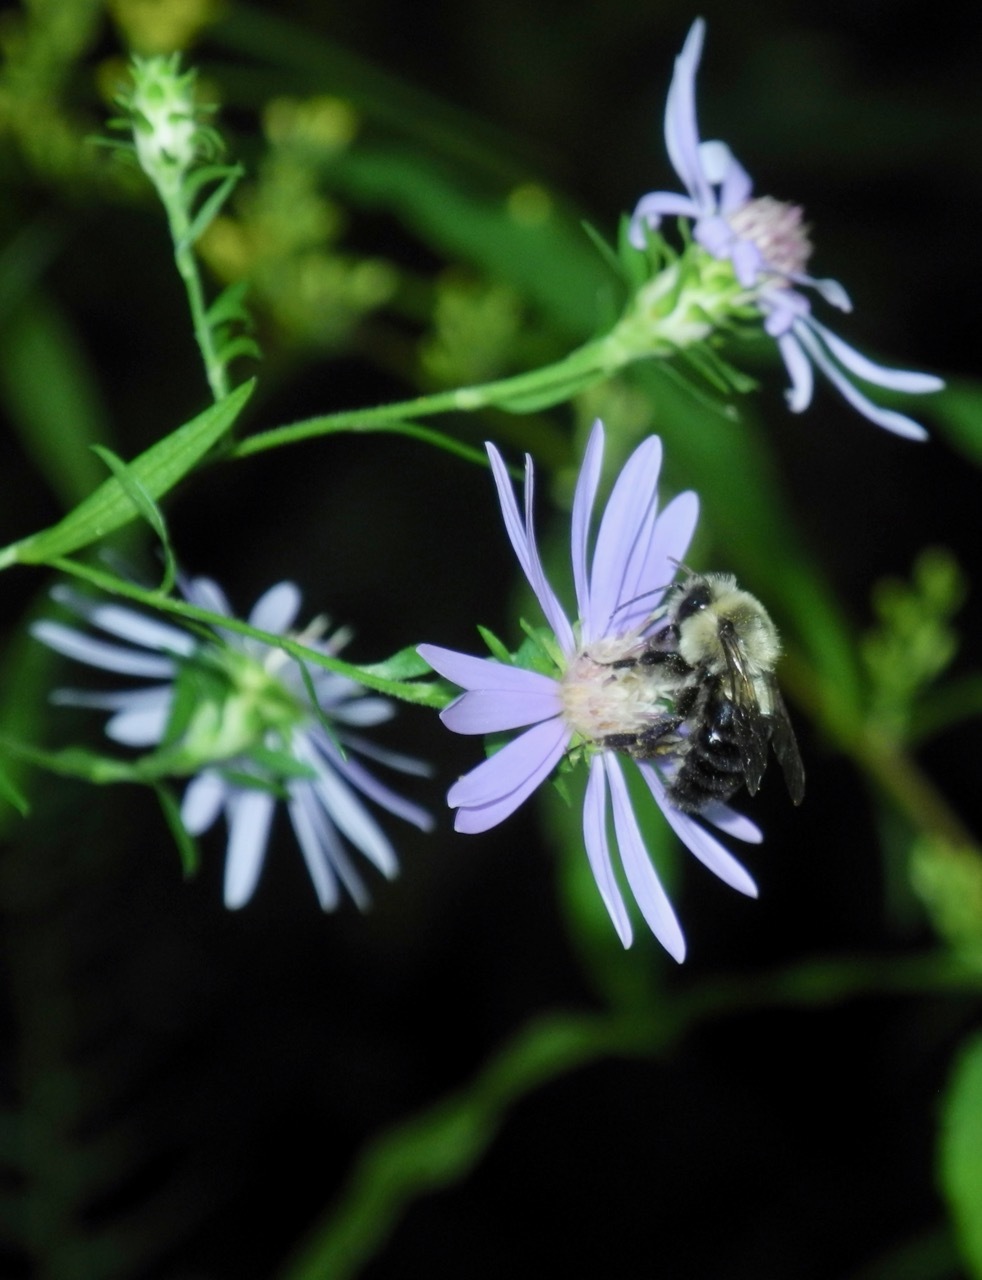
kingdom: Animalia
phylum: Arthropoda
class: Insecta
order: Hymenoptera
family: Apidae
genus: Bombus
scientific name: Bombus impatiens
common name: Common eastern bumble bee
